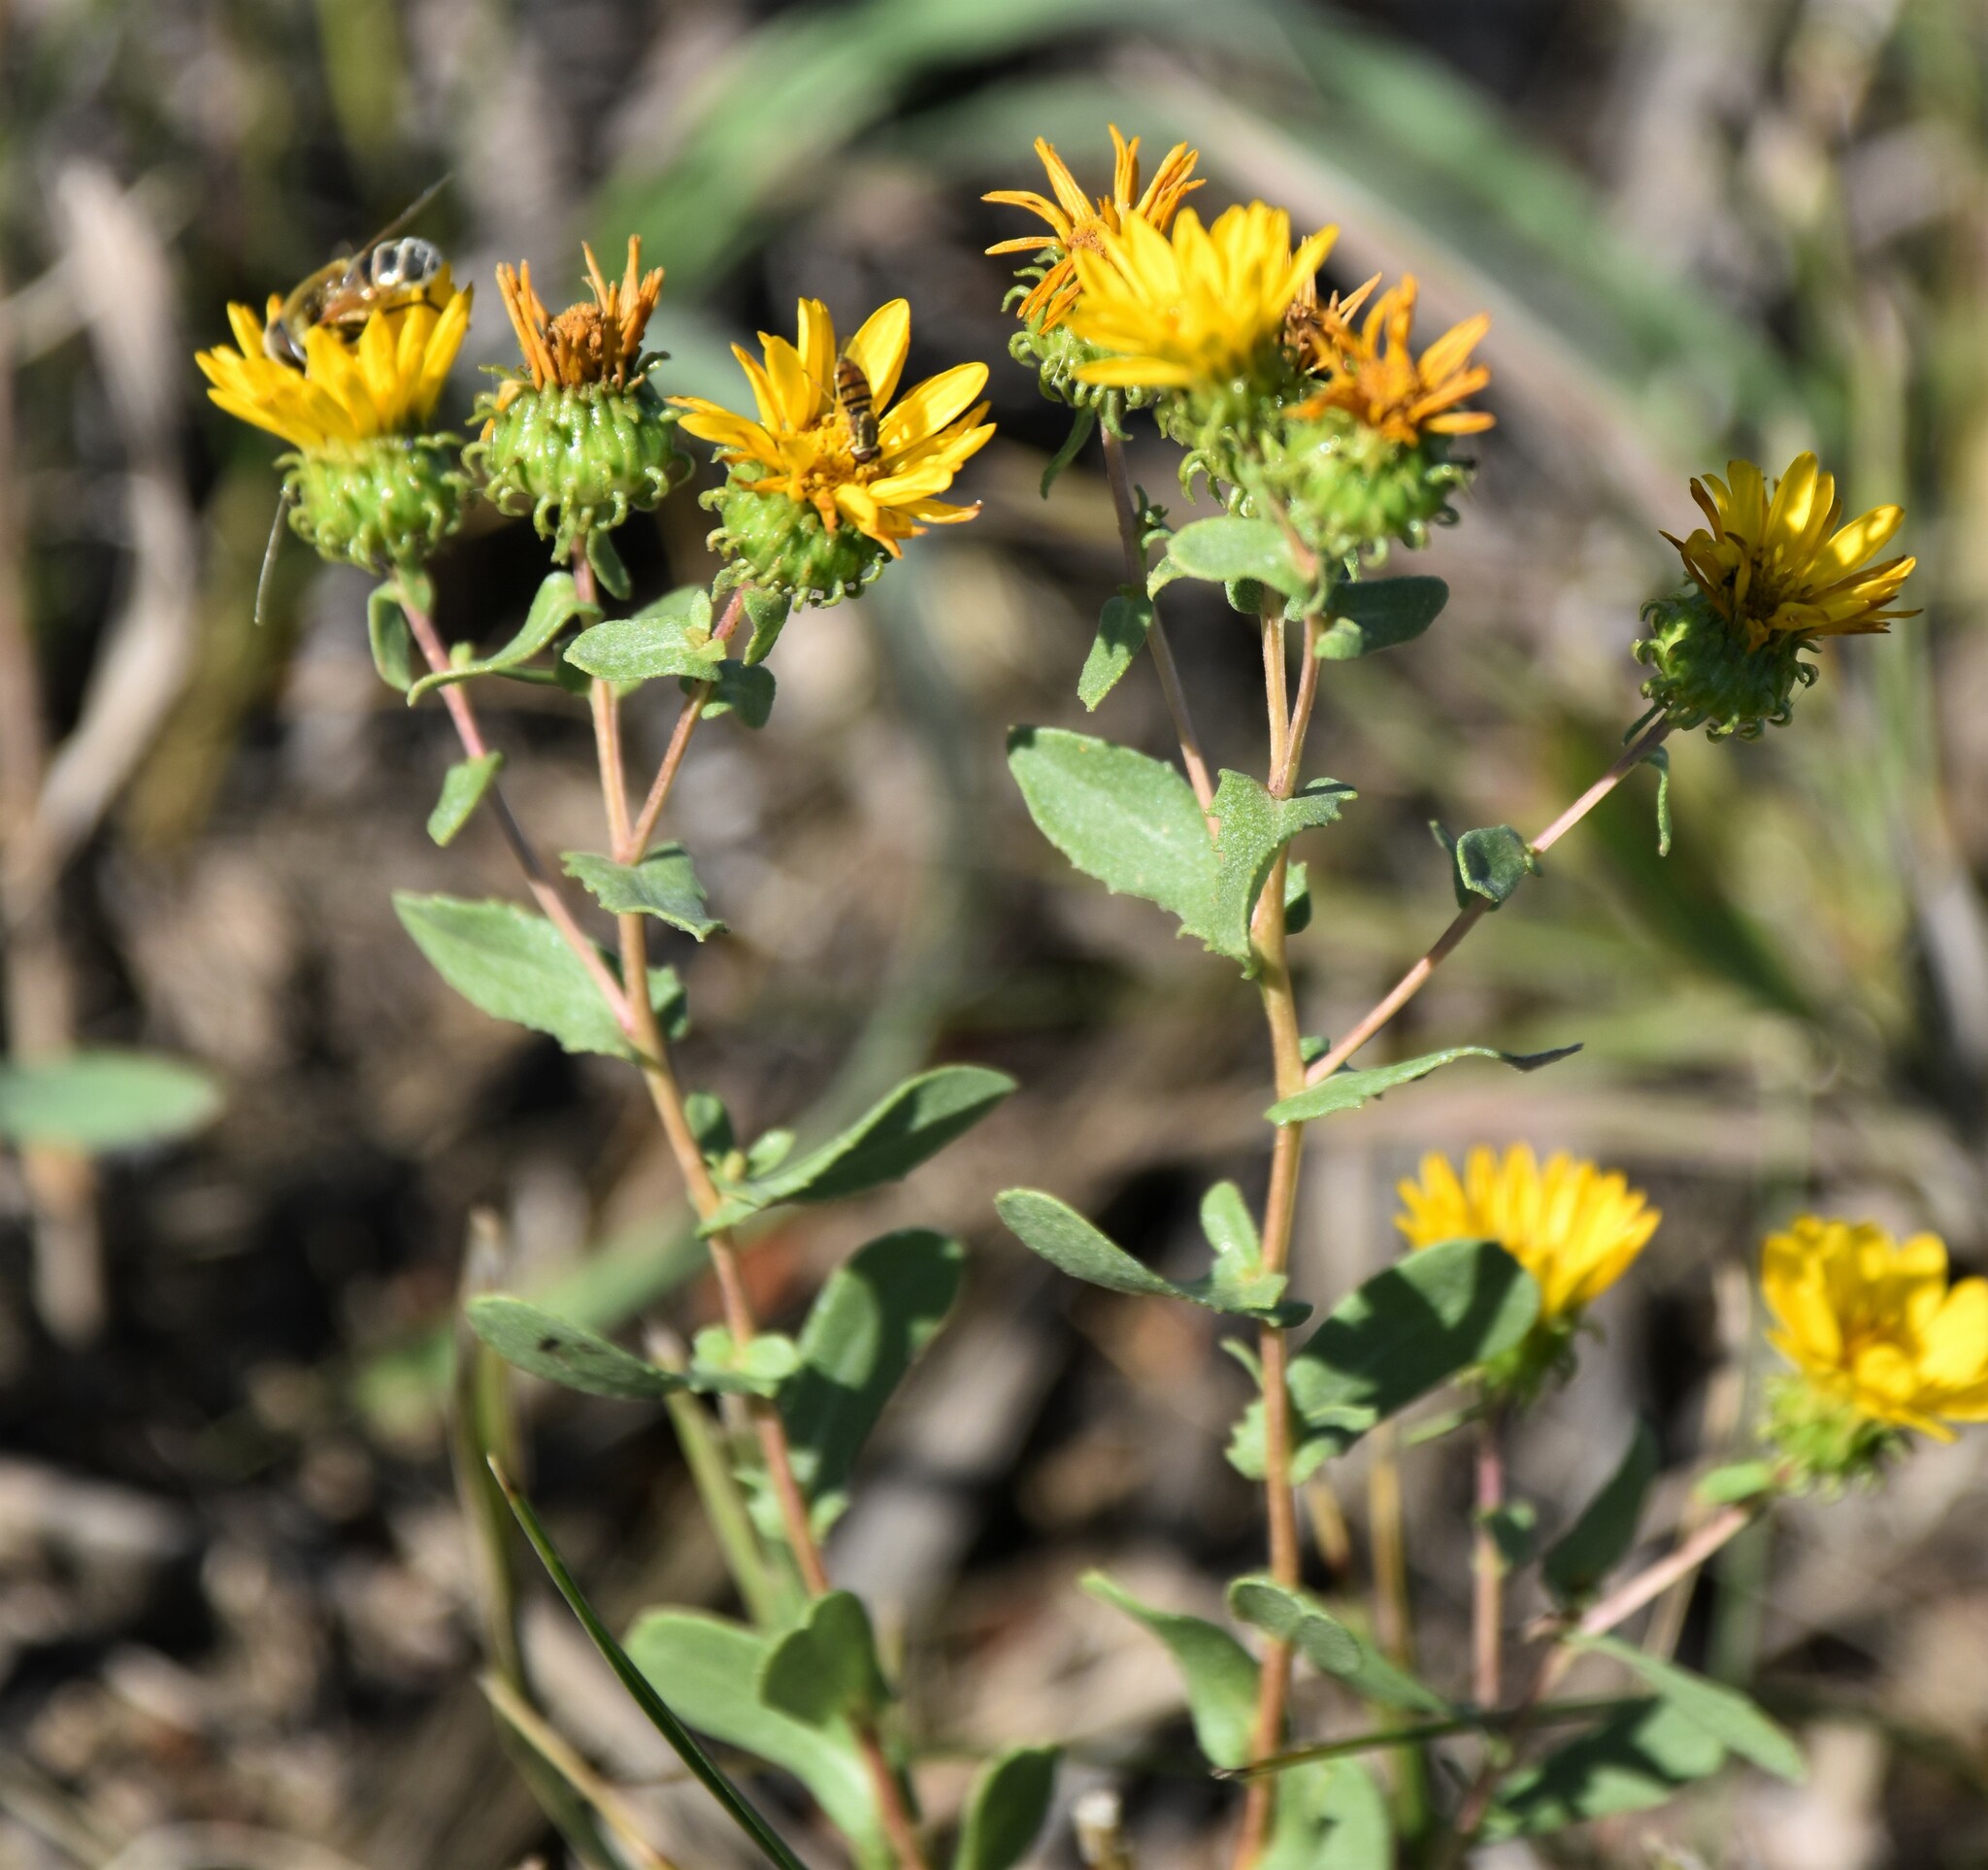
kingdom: Plantae
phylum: Tracheophyta
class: Magnoliopsida
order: Asterales
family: Asteraceae
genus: Grindelia
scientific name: Grindelia squarrosa
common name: Curly-cup gumweed
